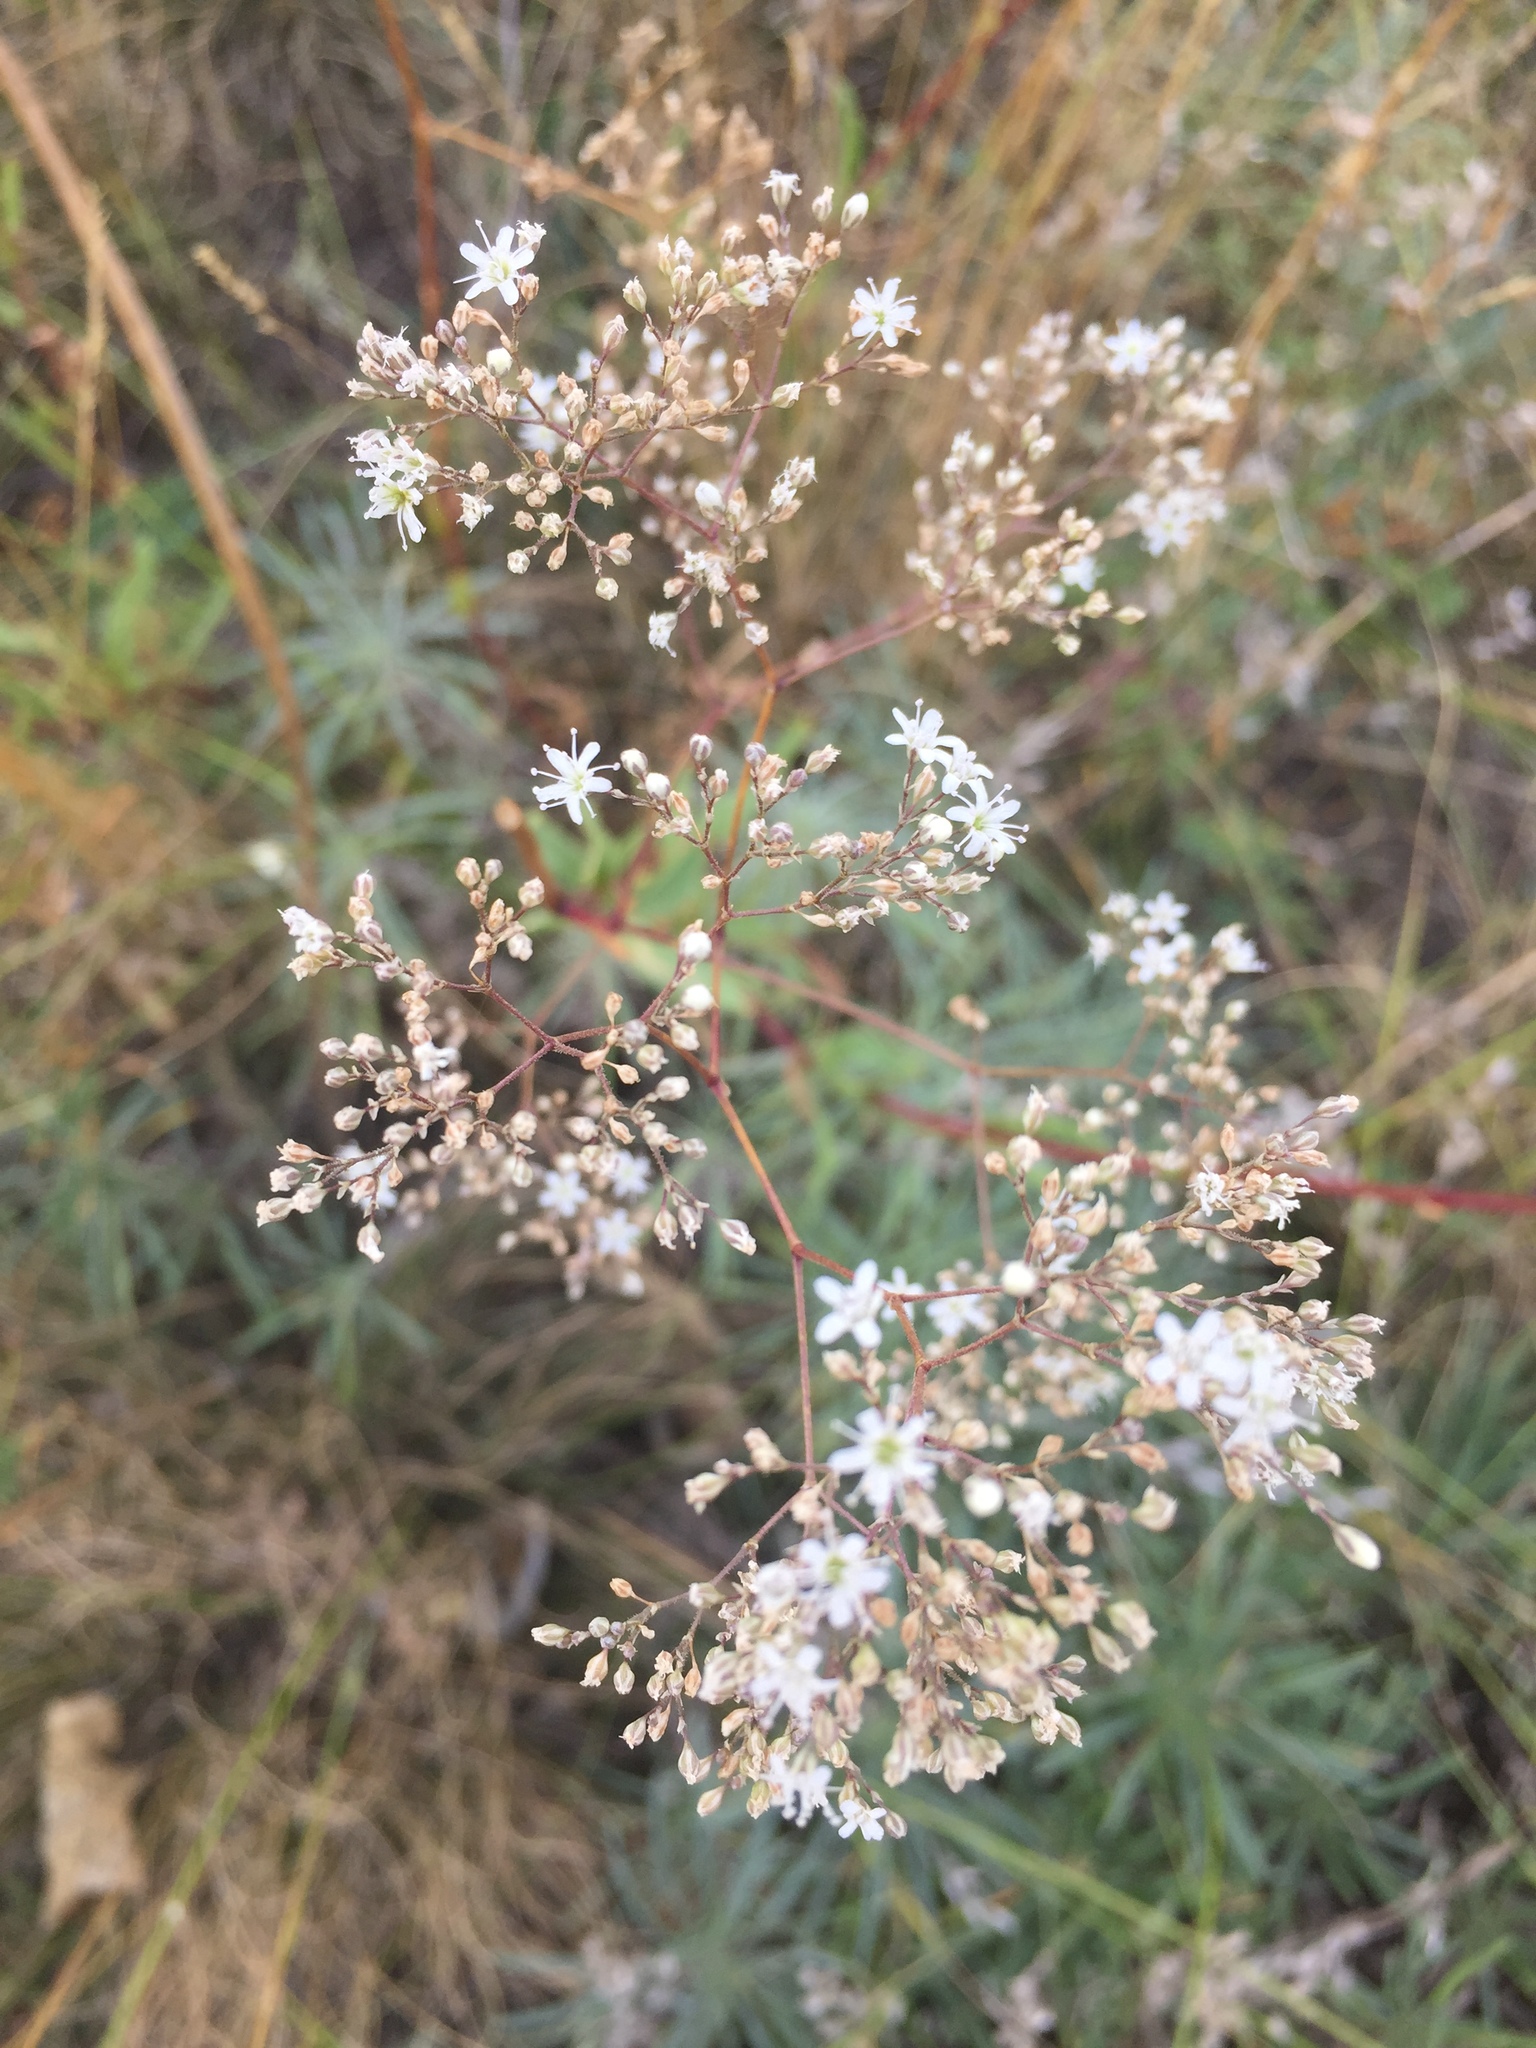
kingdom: Plantae
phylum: Tracheophyta
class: Magnoliopsida
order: Caryophyllales
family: Caryophyllaceae
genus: Gypsophila
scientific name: Gypsophila altissima
